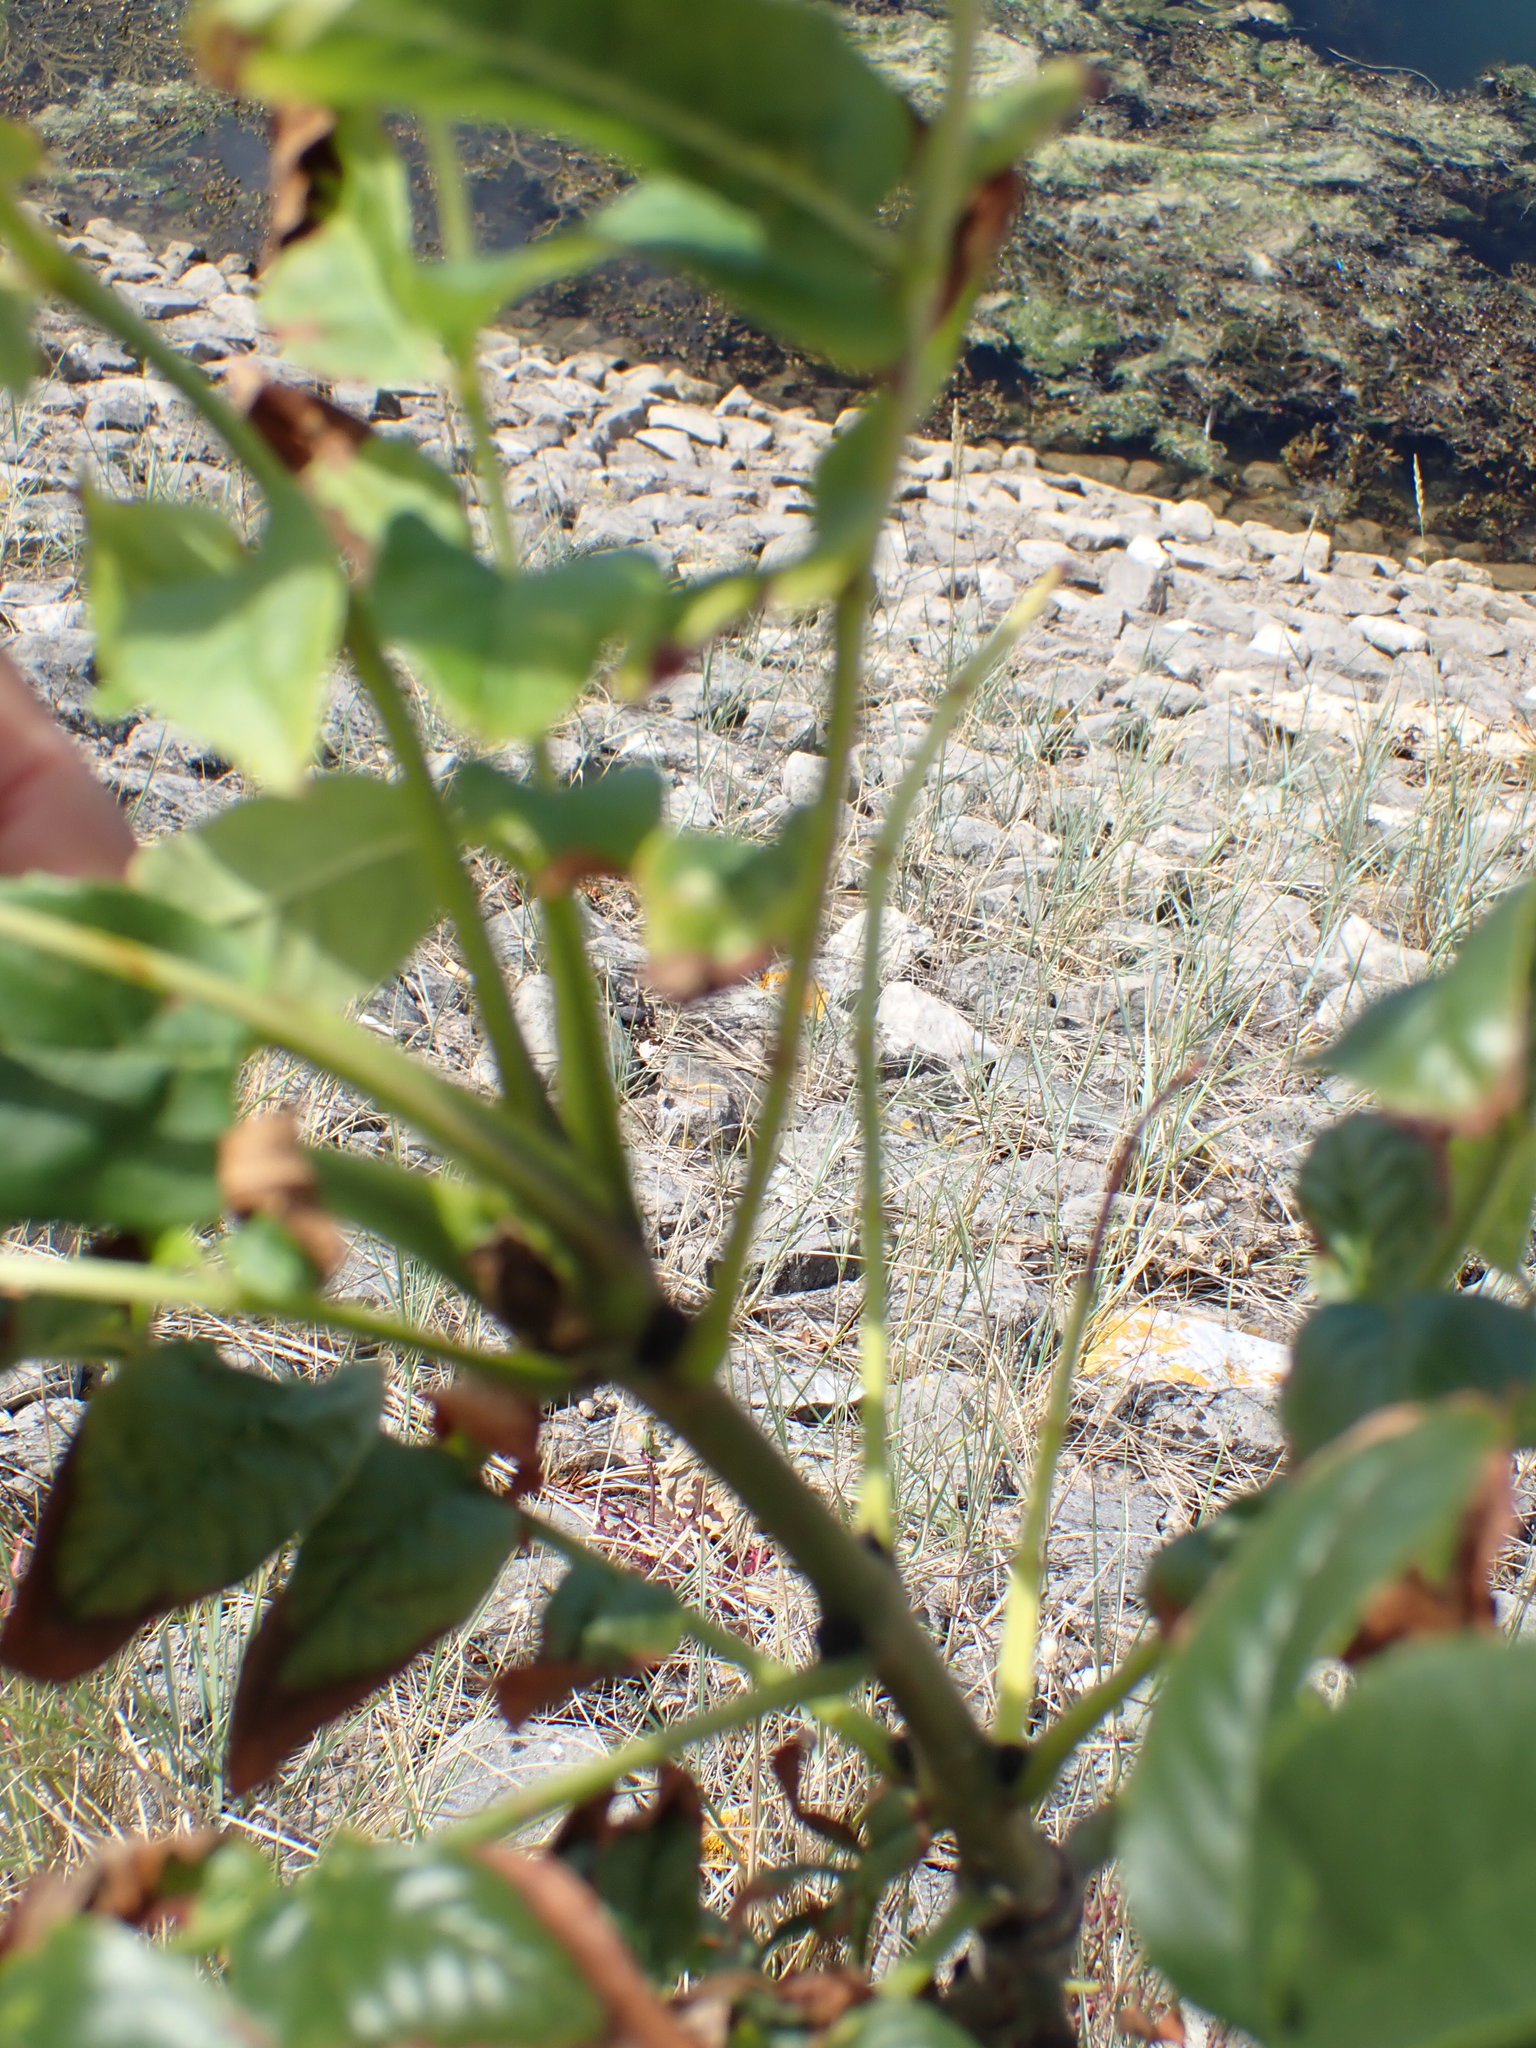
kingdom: Plantae
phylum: Tracheophyta
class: Magnoliopsida
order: Lamiales
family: Oleaceae
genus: Fraxinus
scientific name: Fraxinus excelsior
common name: European ash
